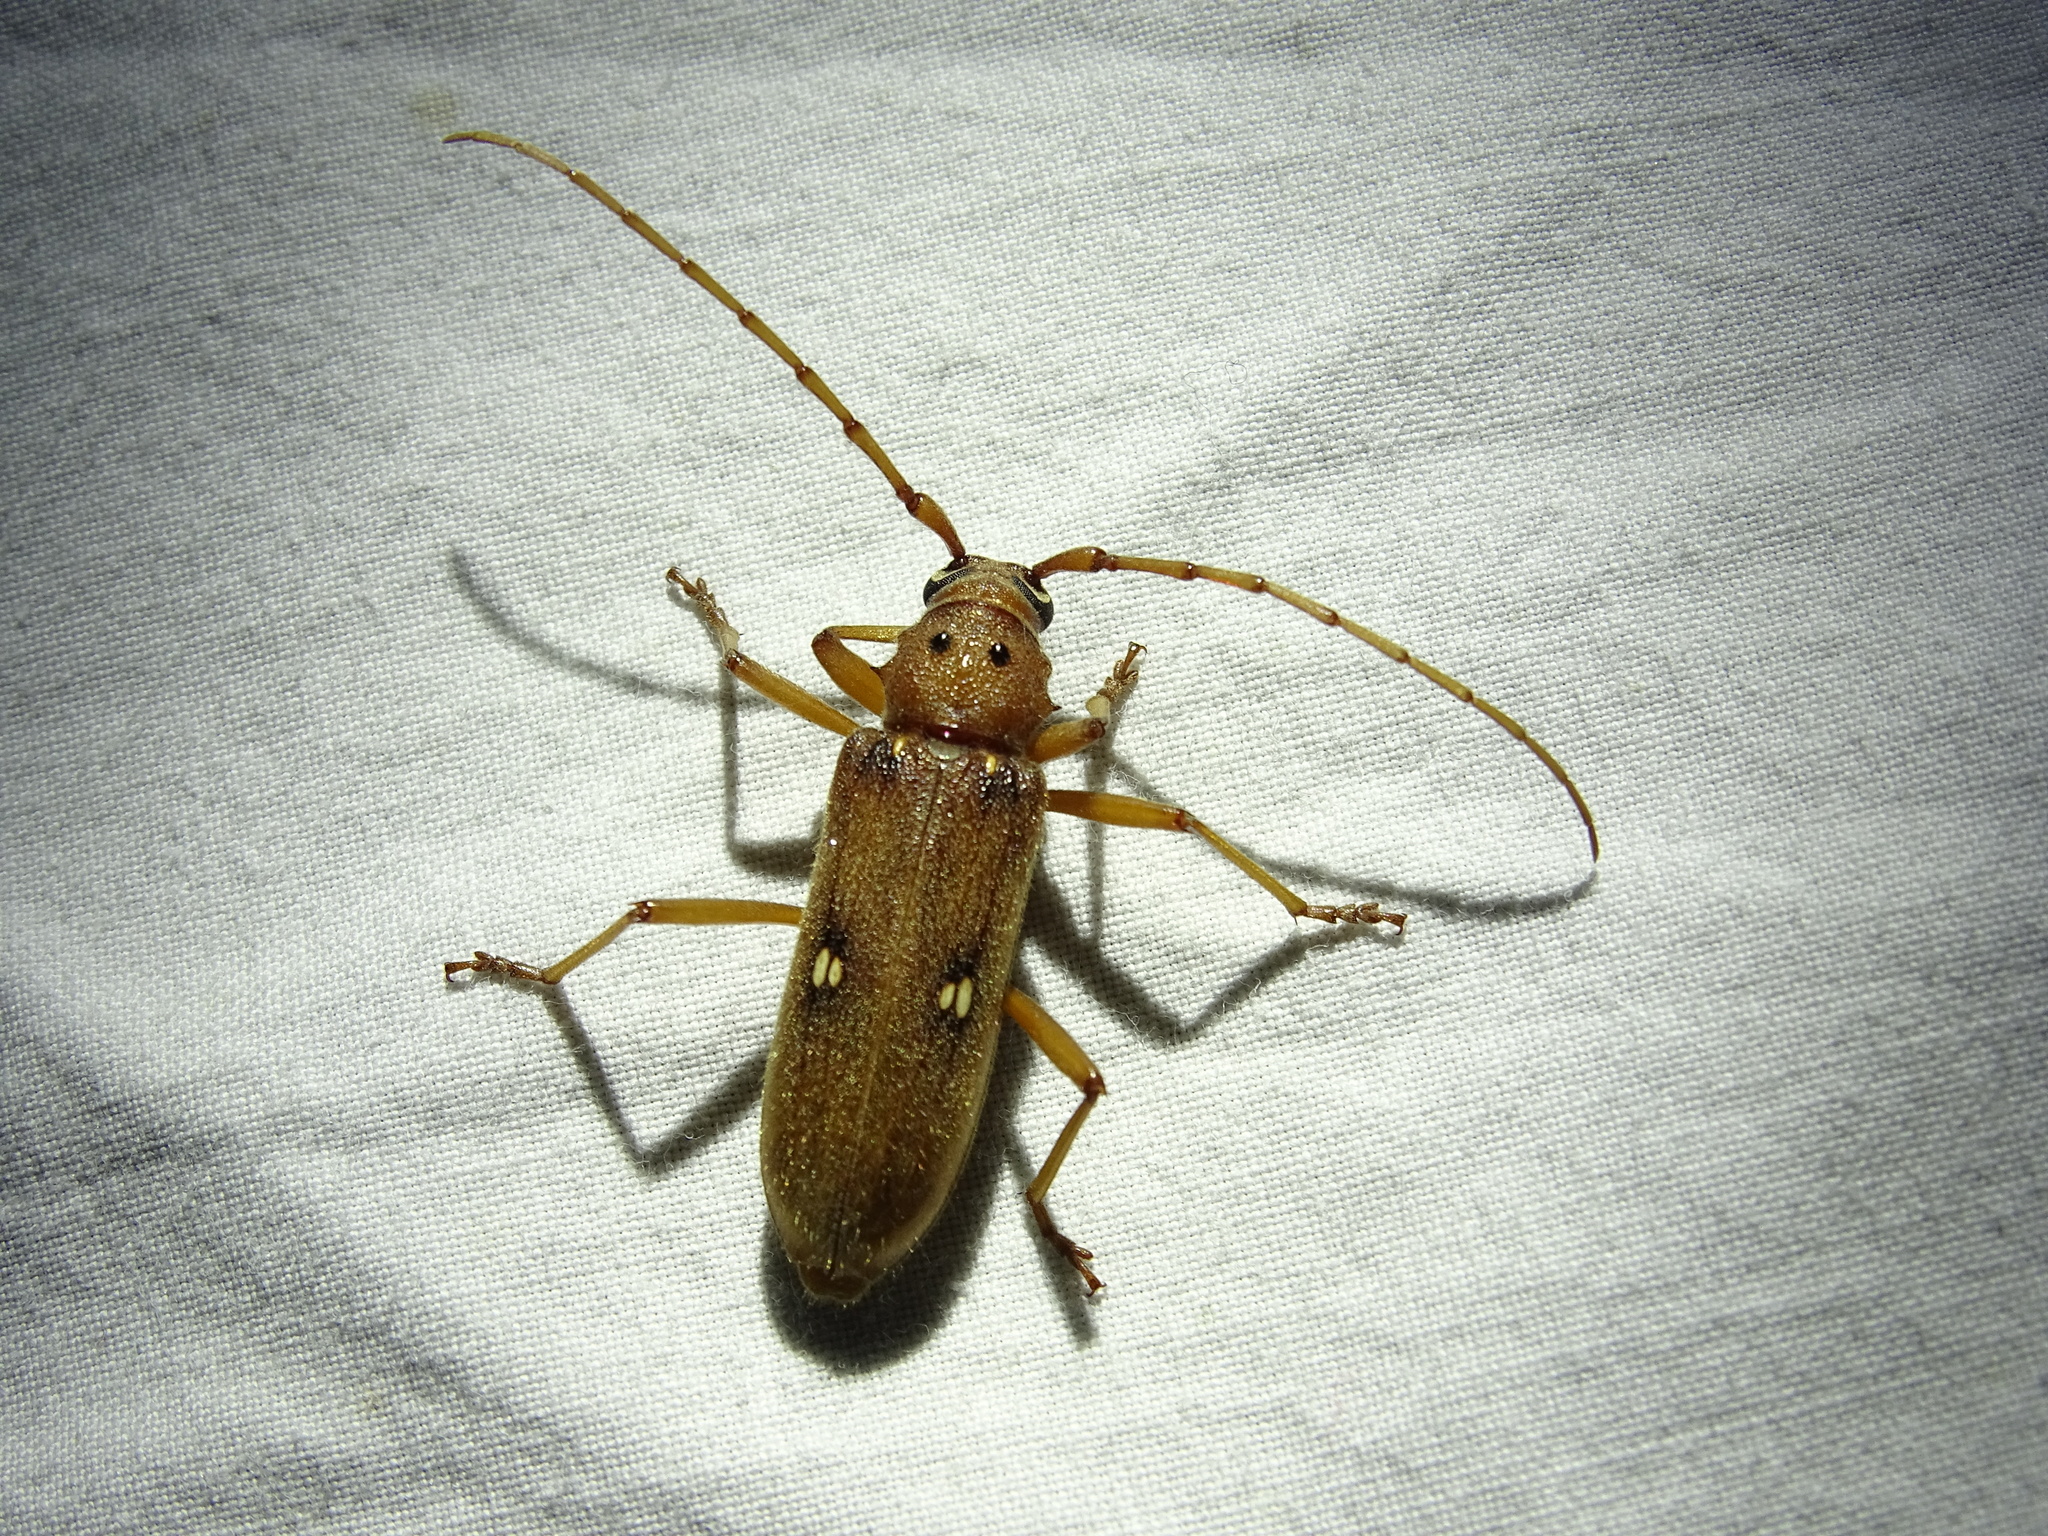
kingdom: Animalia
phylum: Arthropoda
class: Insecta
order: Coleoptera
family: Cerambycidae
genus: Eburia
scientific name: Eburia haldemani
